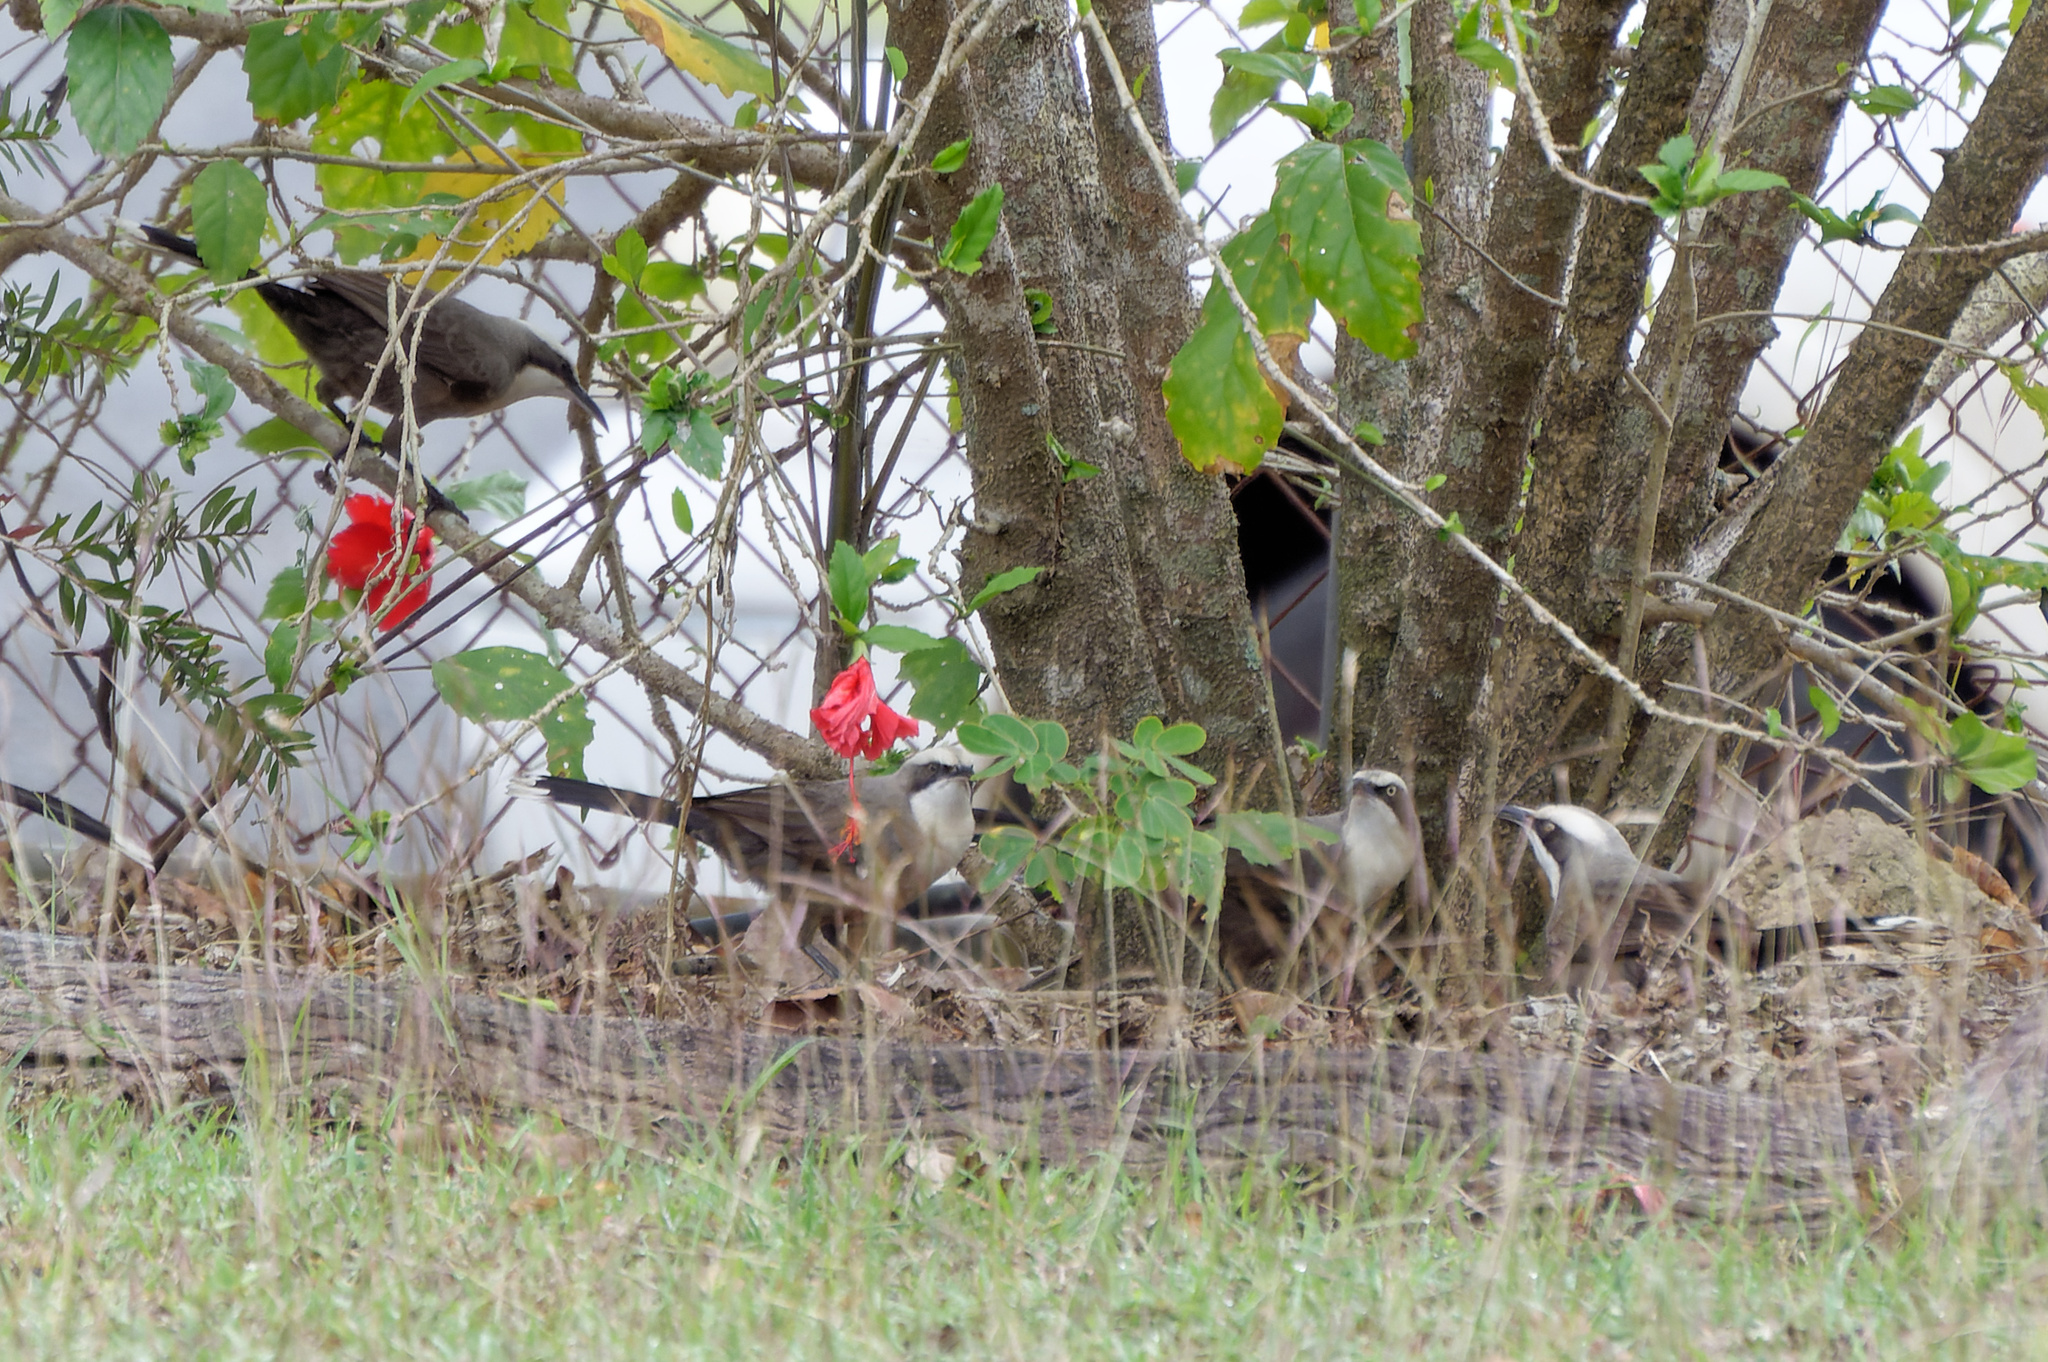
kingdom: Animalia
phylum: Chordata
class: Aves
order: Passeriformes
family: Pomatostomidae
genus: Pomatostomus
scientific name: Pomatostomus temporalis
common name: Grey-crowned babbler
